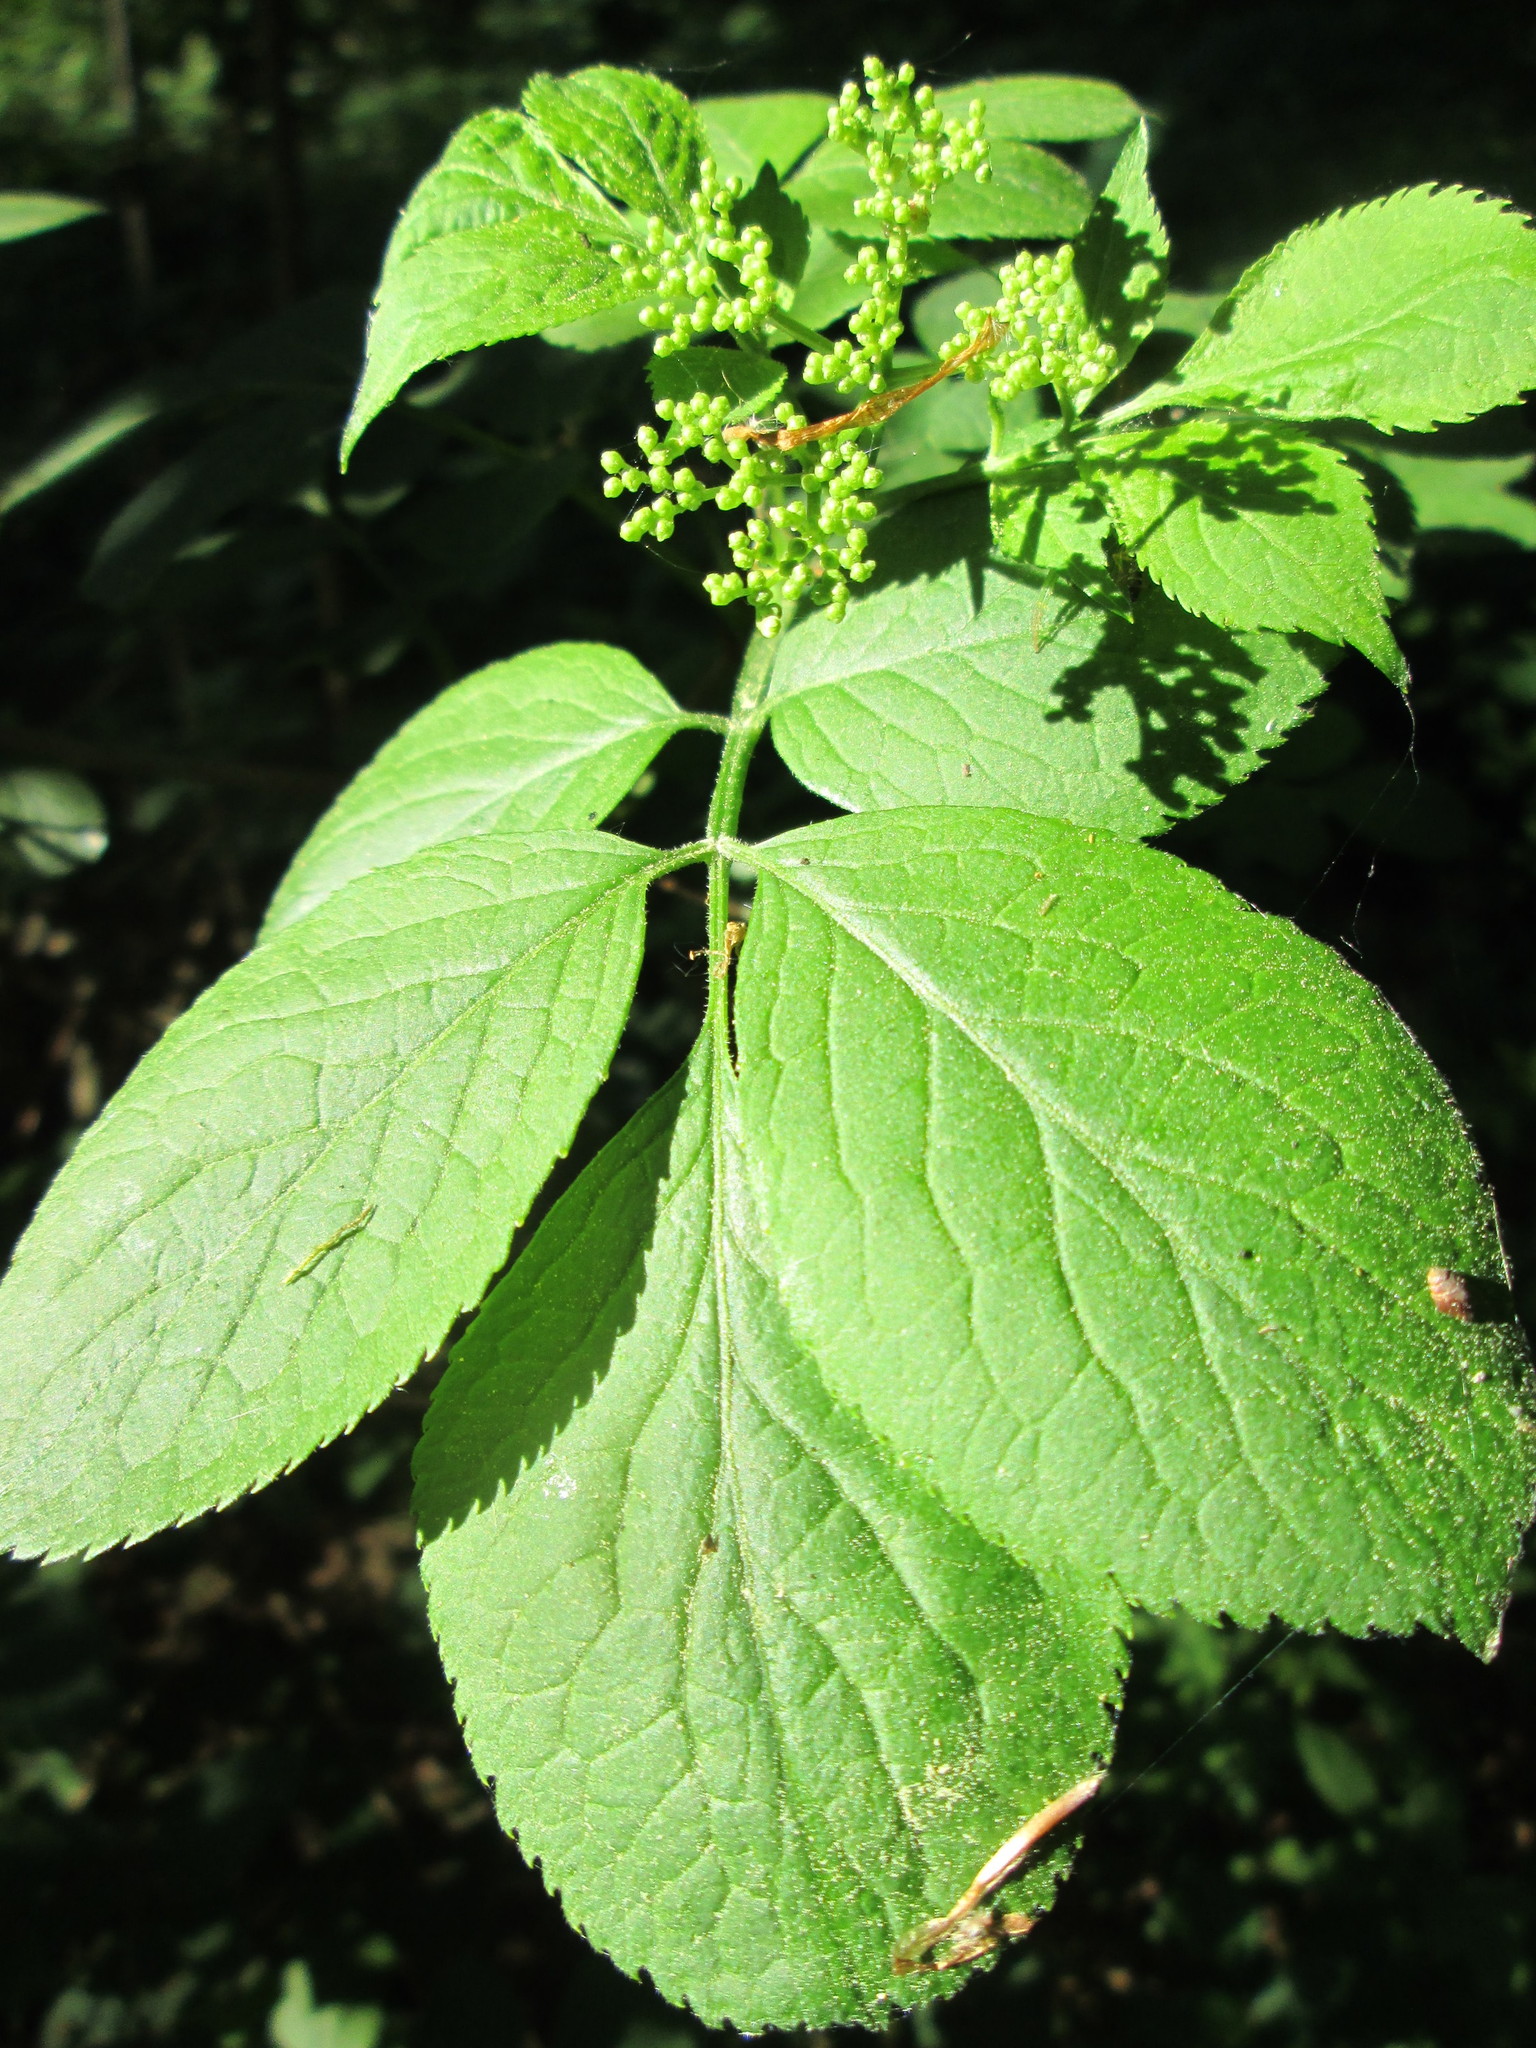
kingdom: Plantae
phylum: Tracheophyta
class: Magnoliopsida
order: Dipsacales
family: Viburnaceae
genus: Sambucus
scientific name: Sambucus nigra
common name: Elder
